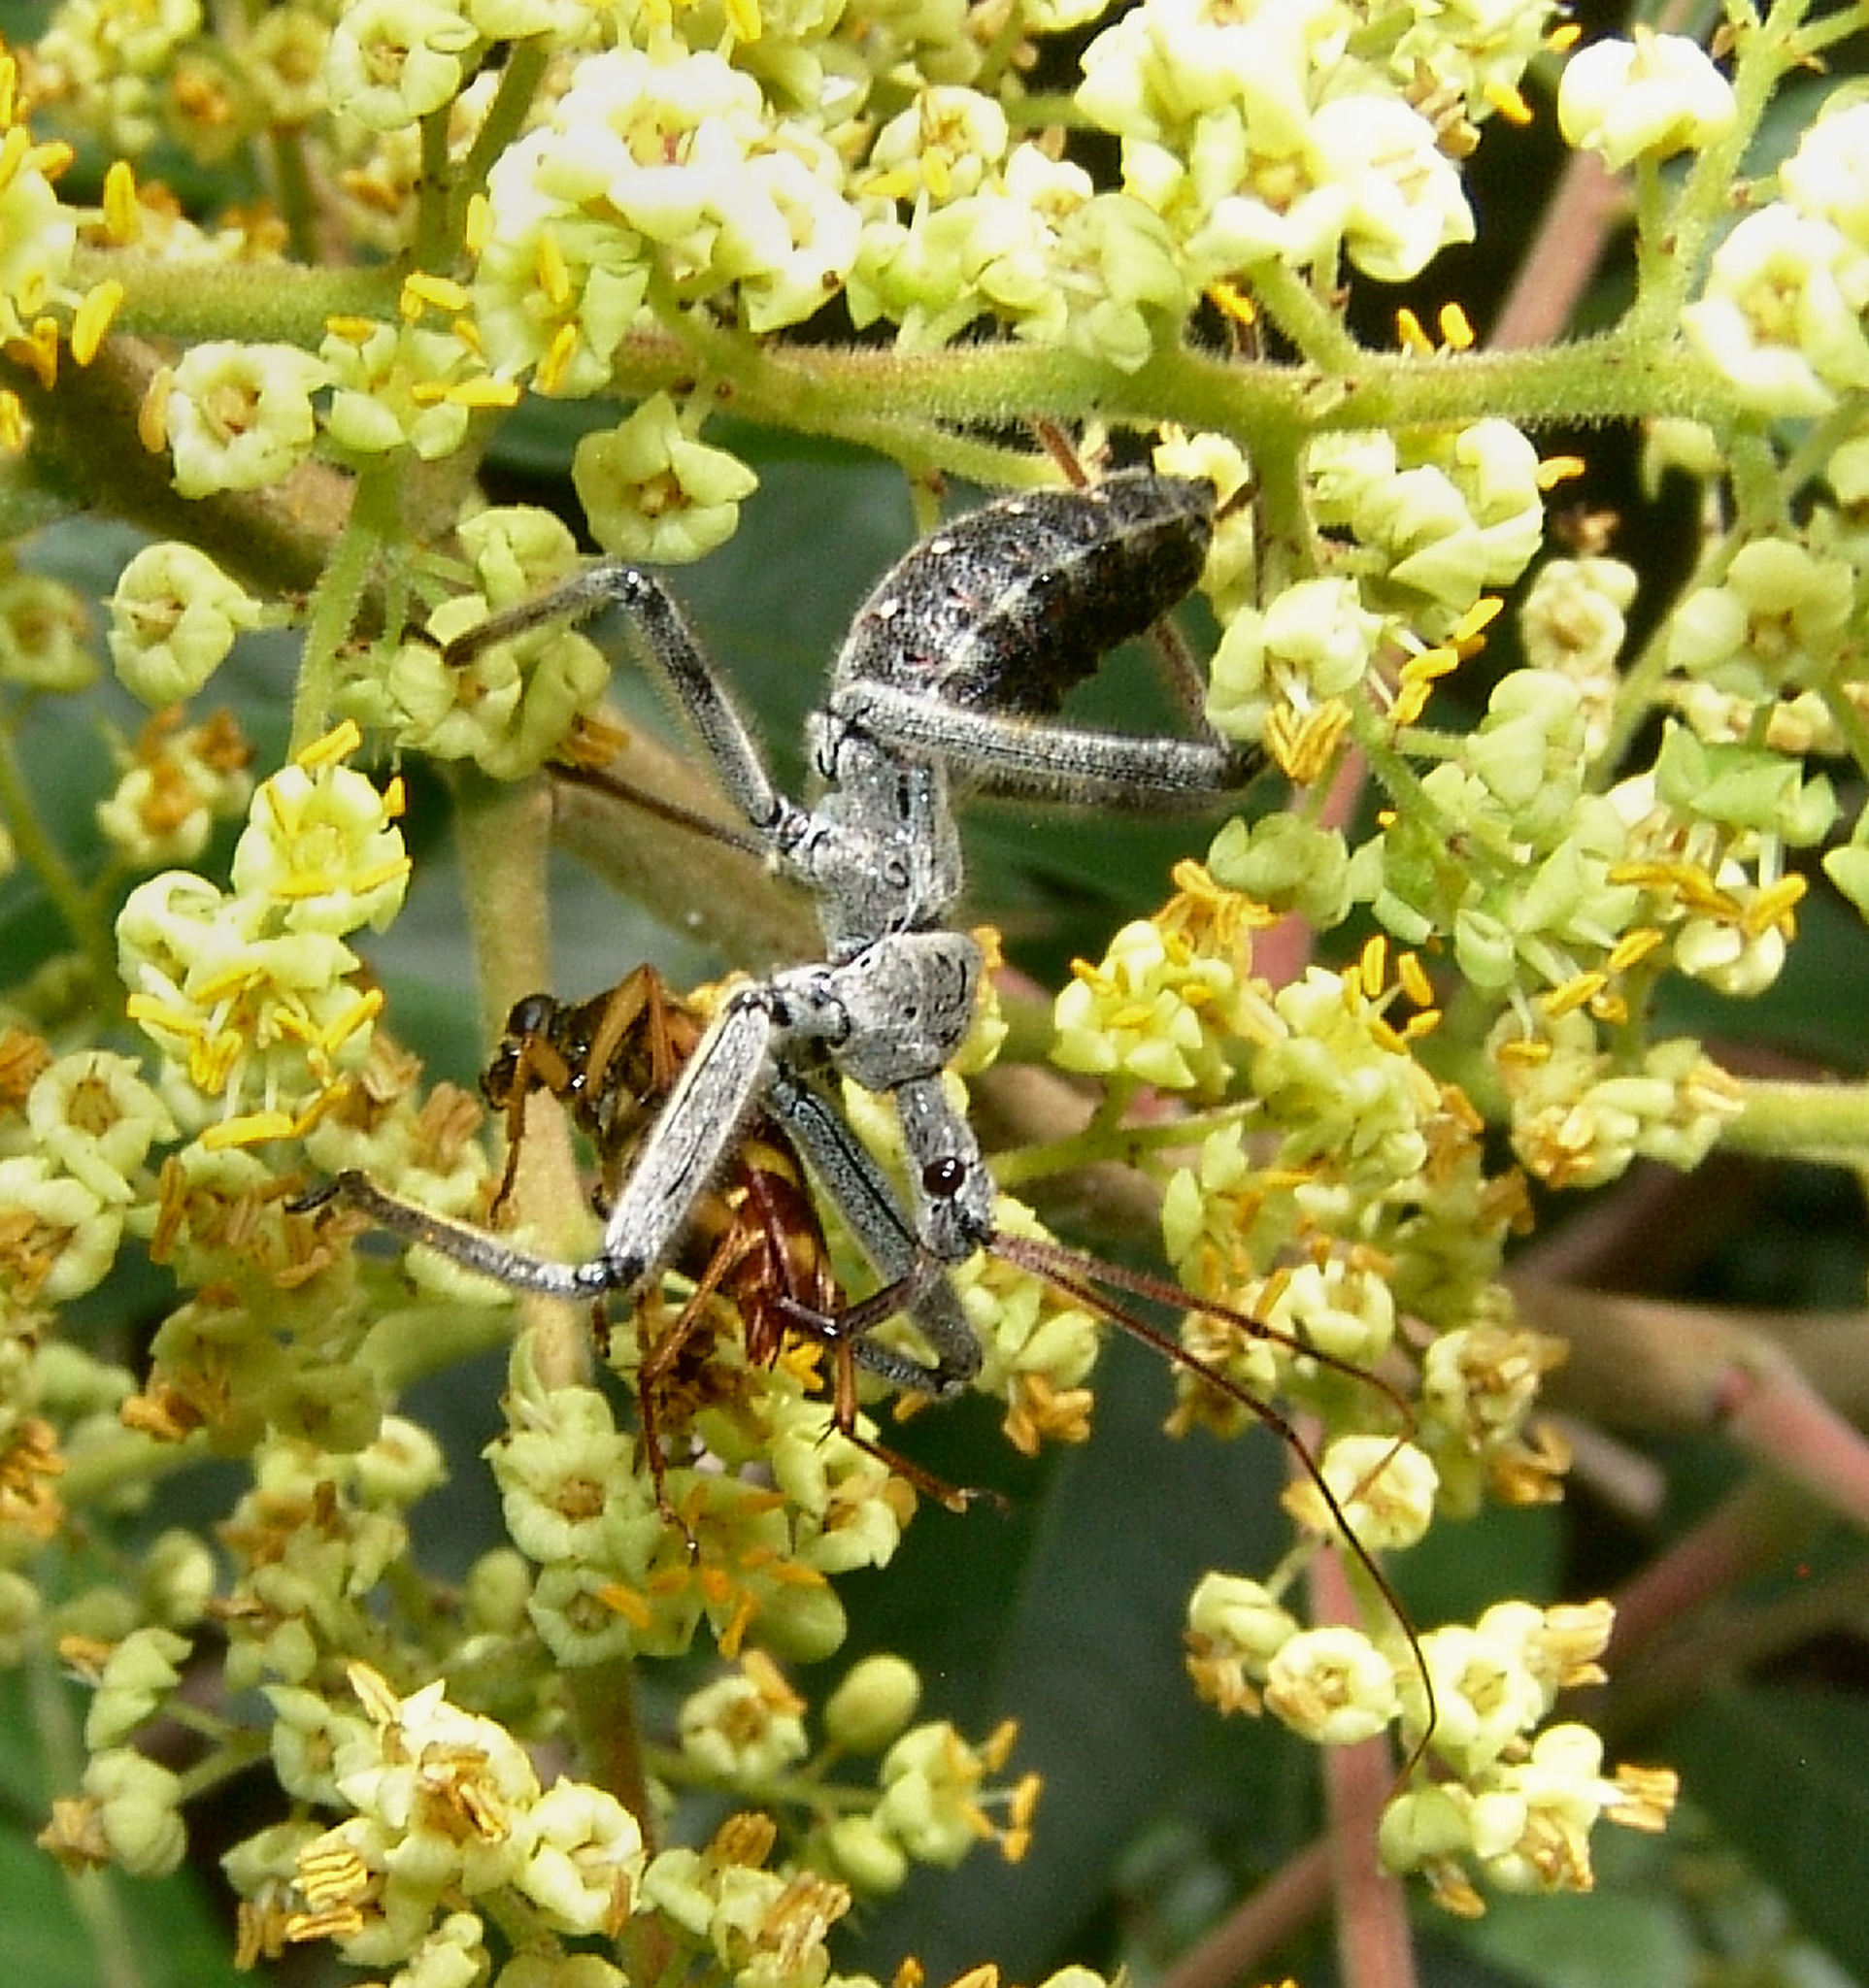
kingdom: Animalia
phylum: Arthropoda
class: Insecta
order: Hemiptera
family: Reduviidae
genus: Arilus
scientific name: Arilus cristatus
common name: North american wheel bug
